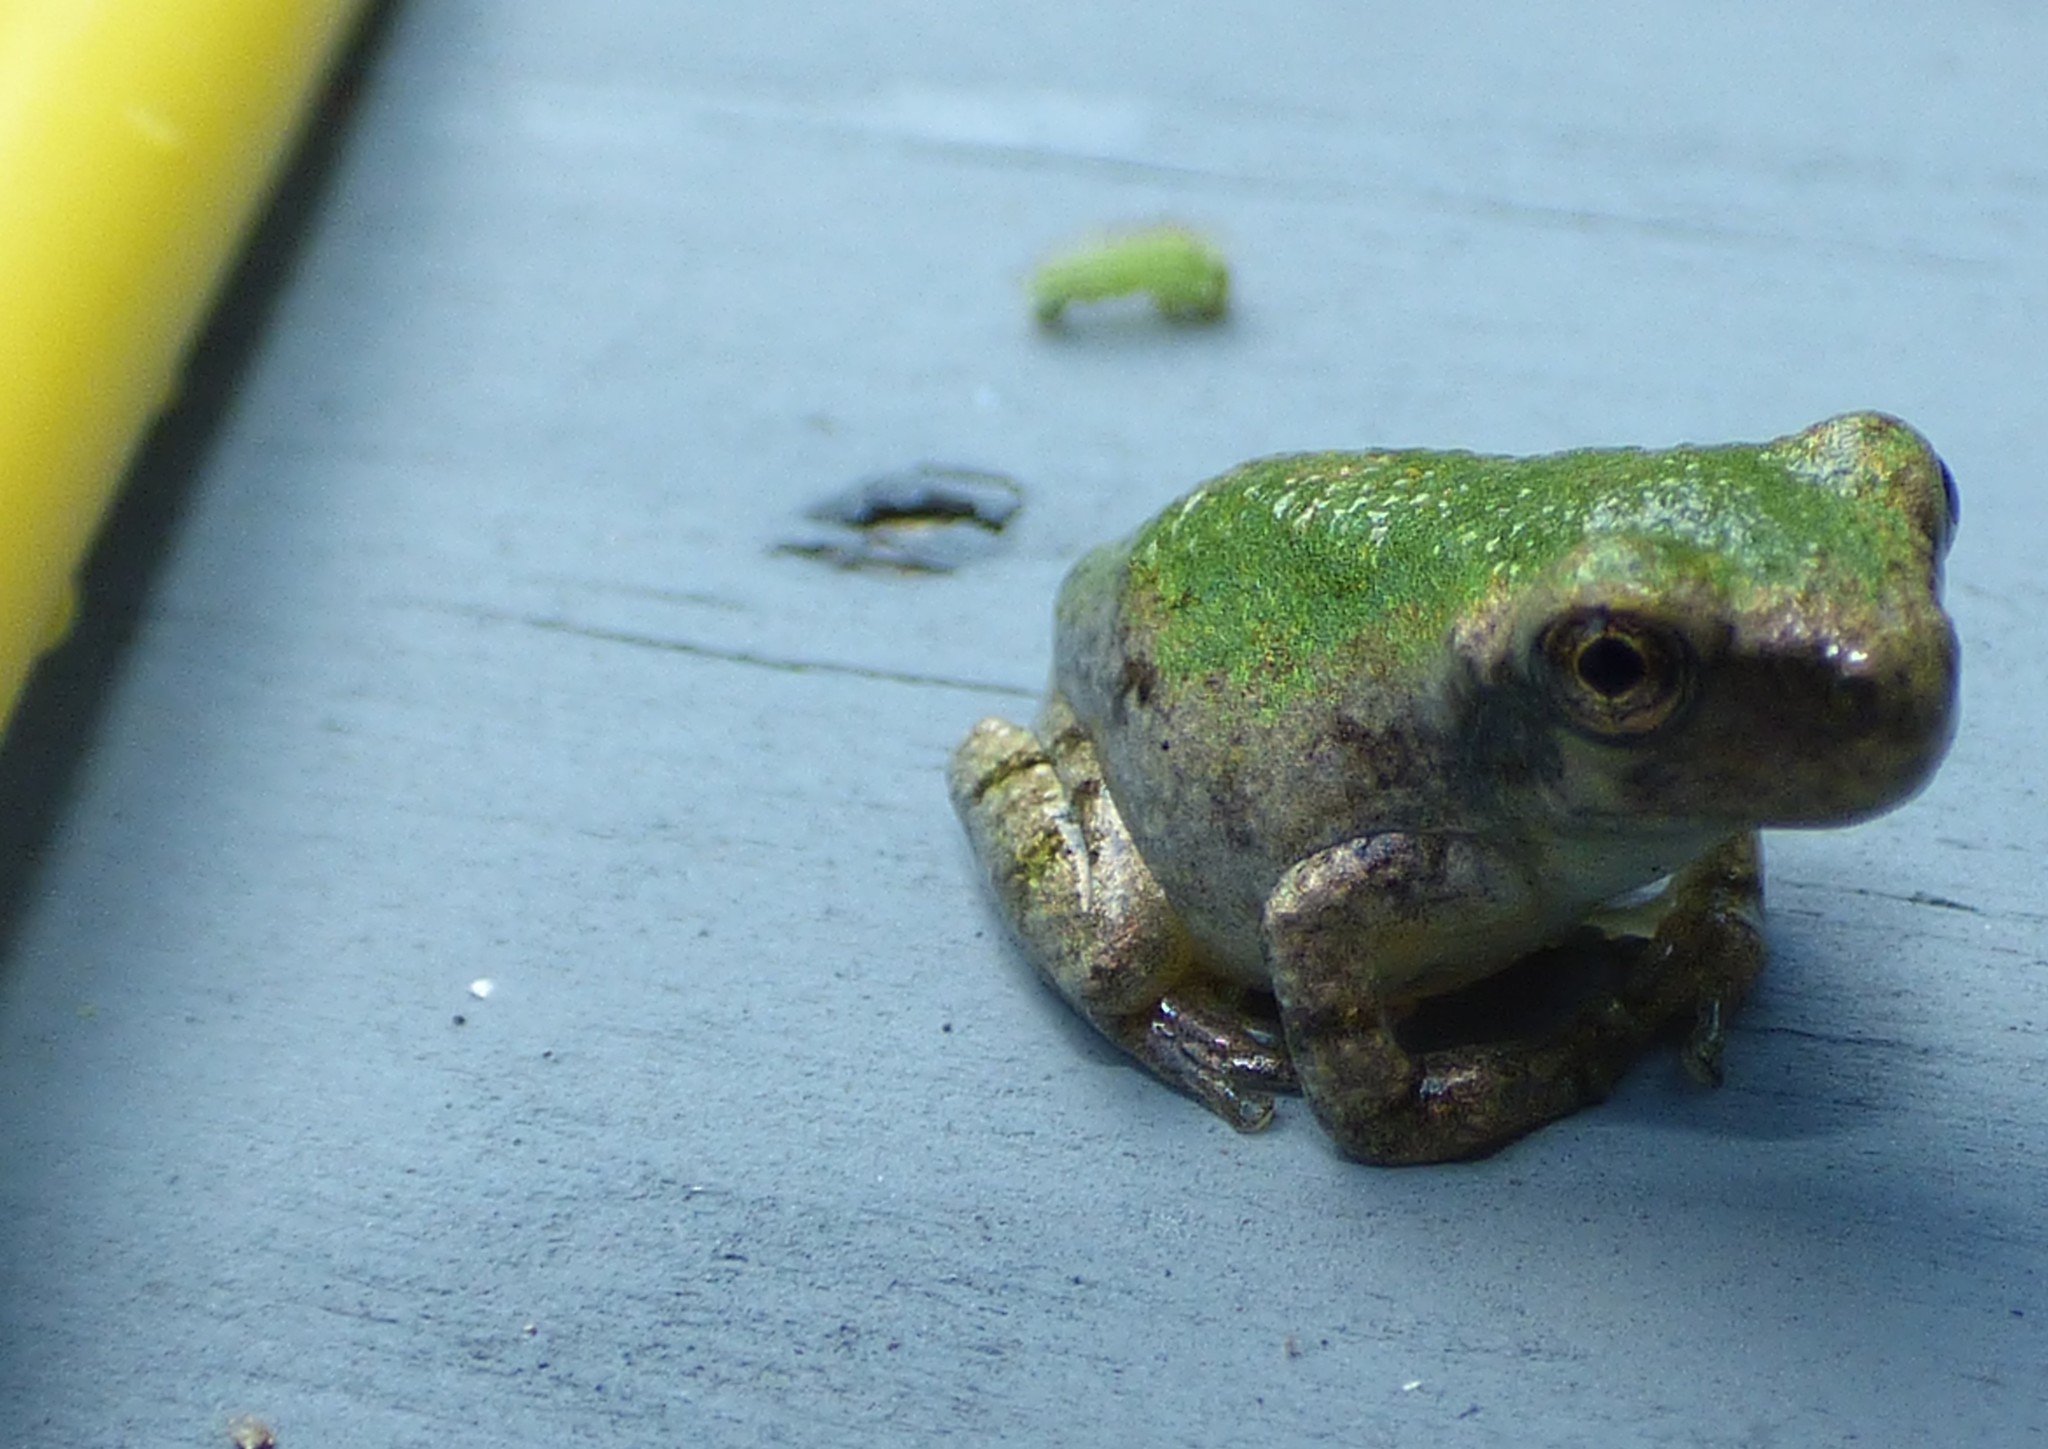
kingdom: Animalia
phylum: Chordata
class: Amphibia
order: Anura
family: Hylidae
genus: Dryophytes
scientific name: Dryophytes chrysoscelis
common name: Cope's gray treefrog
